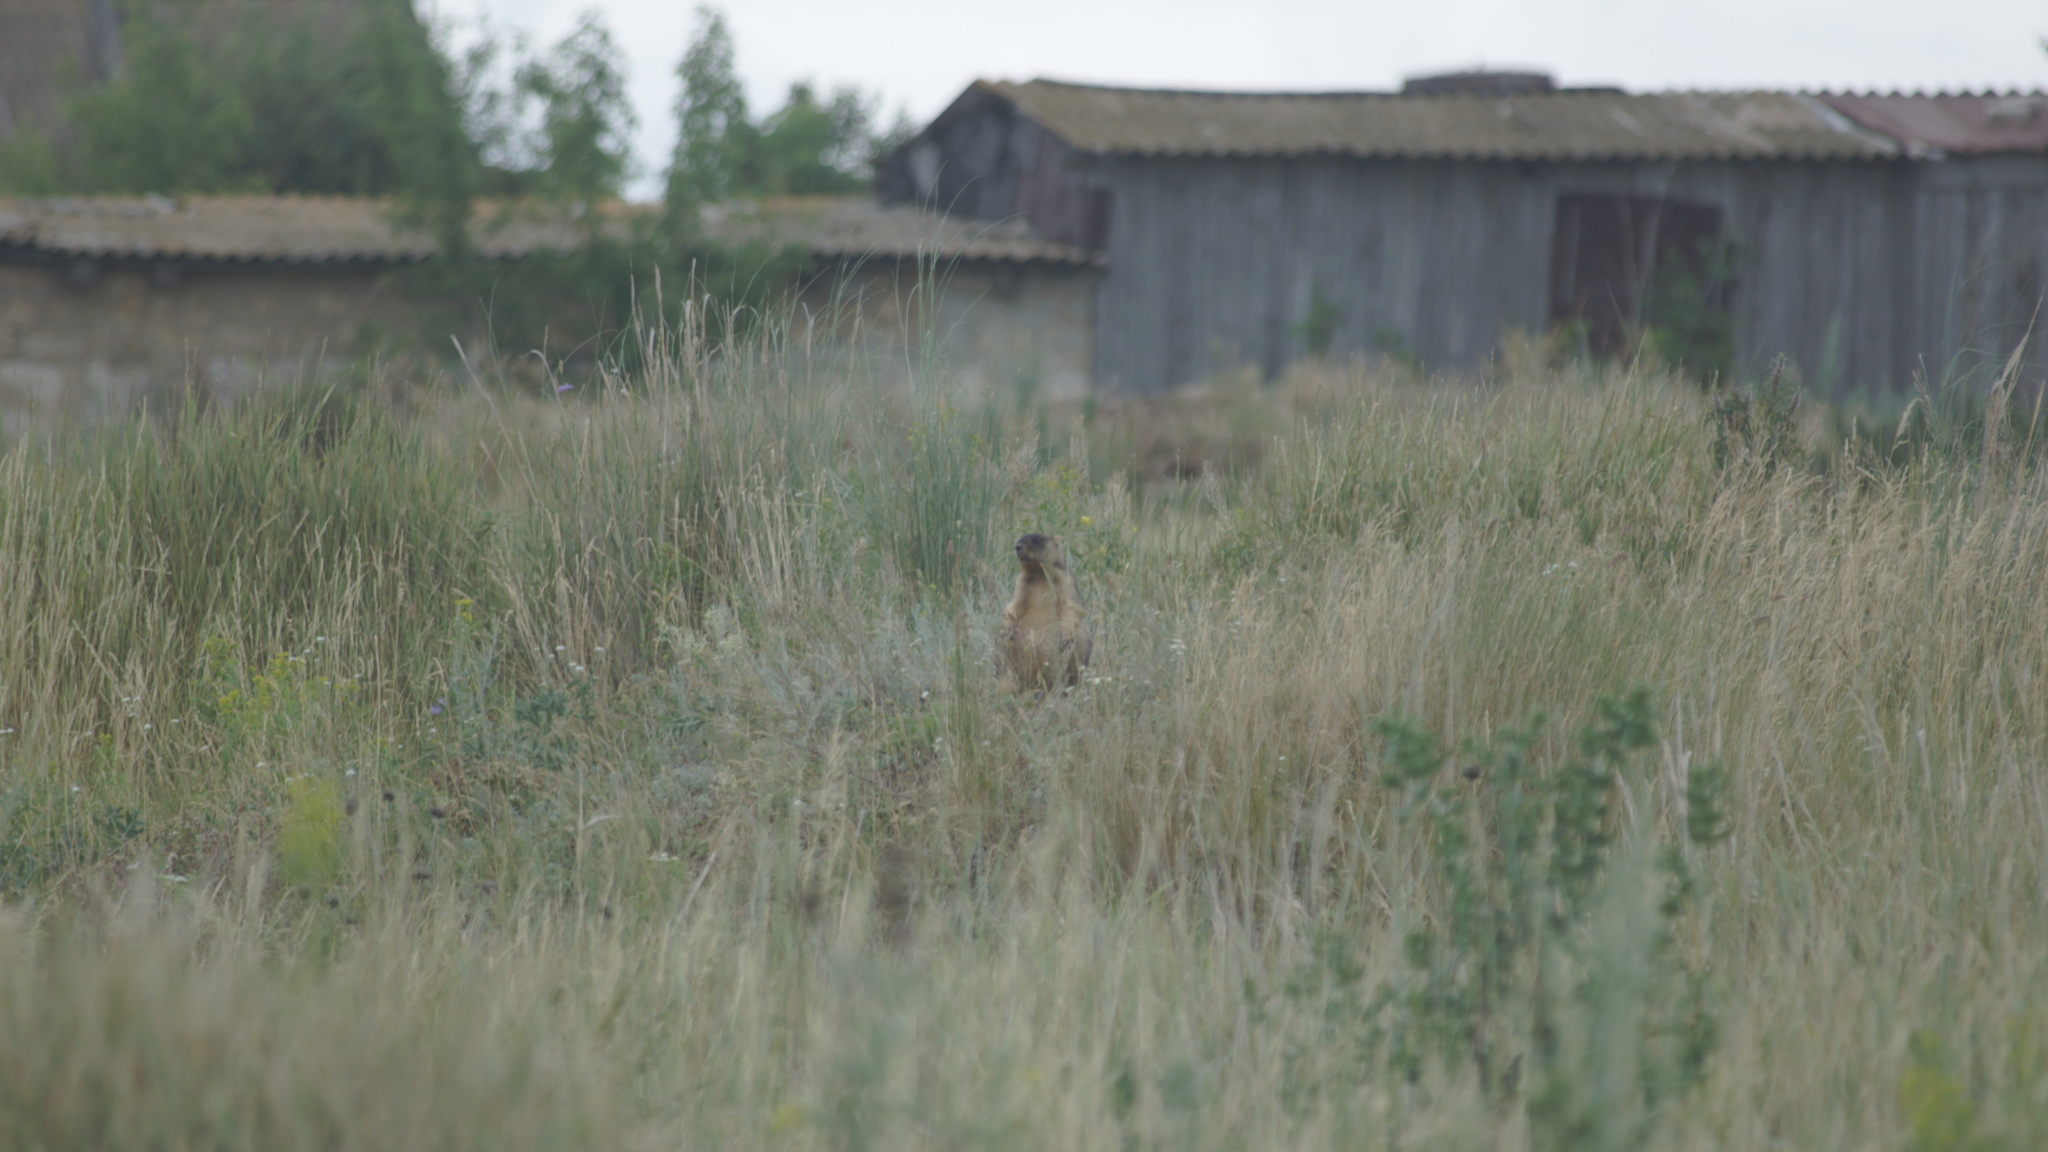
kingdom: Animalia
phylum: Chordata
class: Mammalia
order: Rodentia
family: Sciuridae
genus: Marmota
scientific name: Marmota bobak
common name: Bobak marmot
